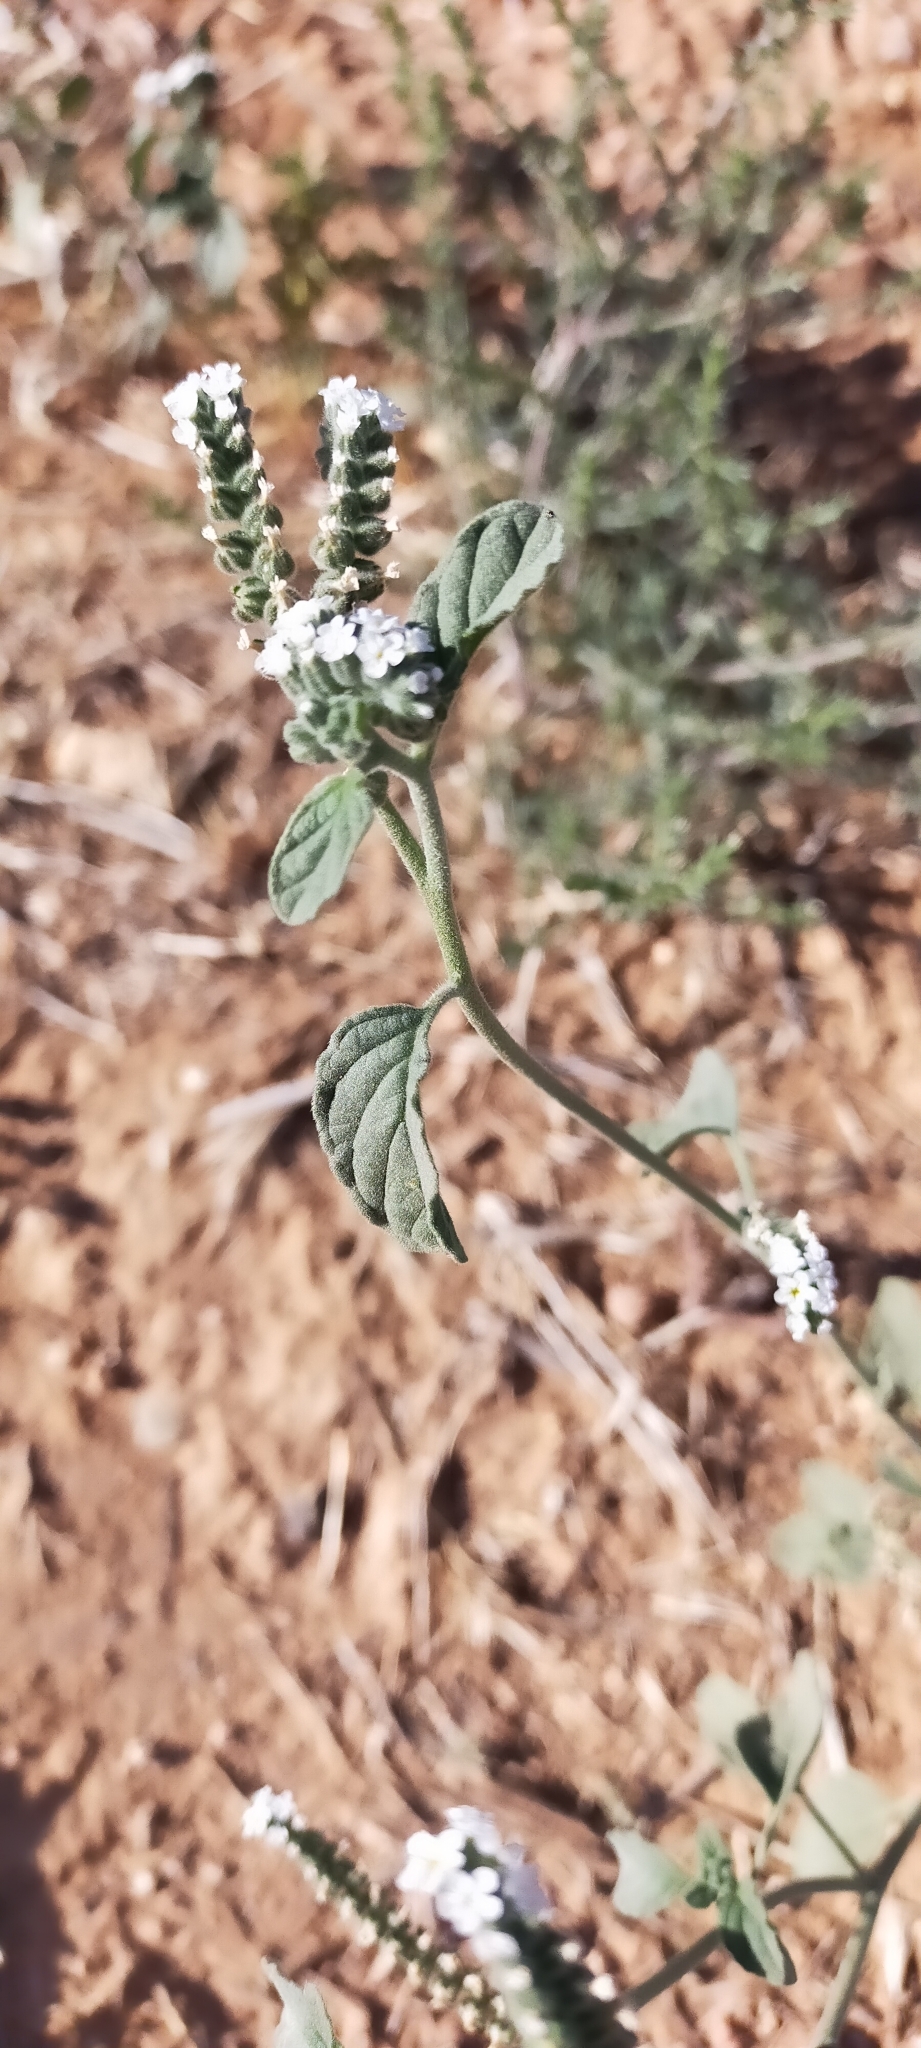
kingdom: Plantae
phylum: Tracheophyta
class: Magnoliopsida
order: Boraginales
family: Heliotropiaceae
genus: Heliotropium
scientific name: Heliotropium europaeum
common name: European heliotrope
